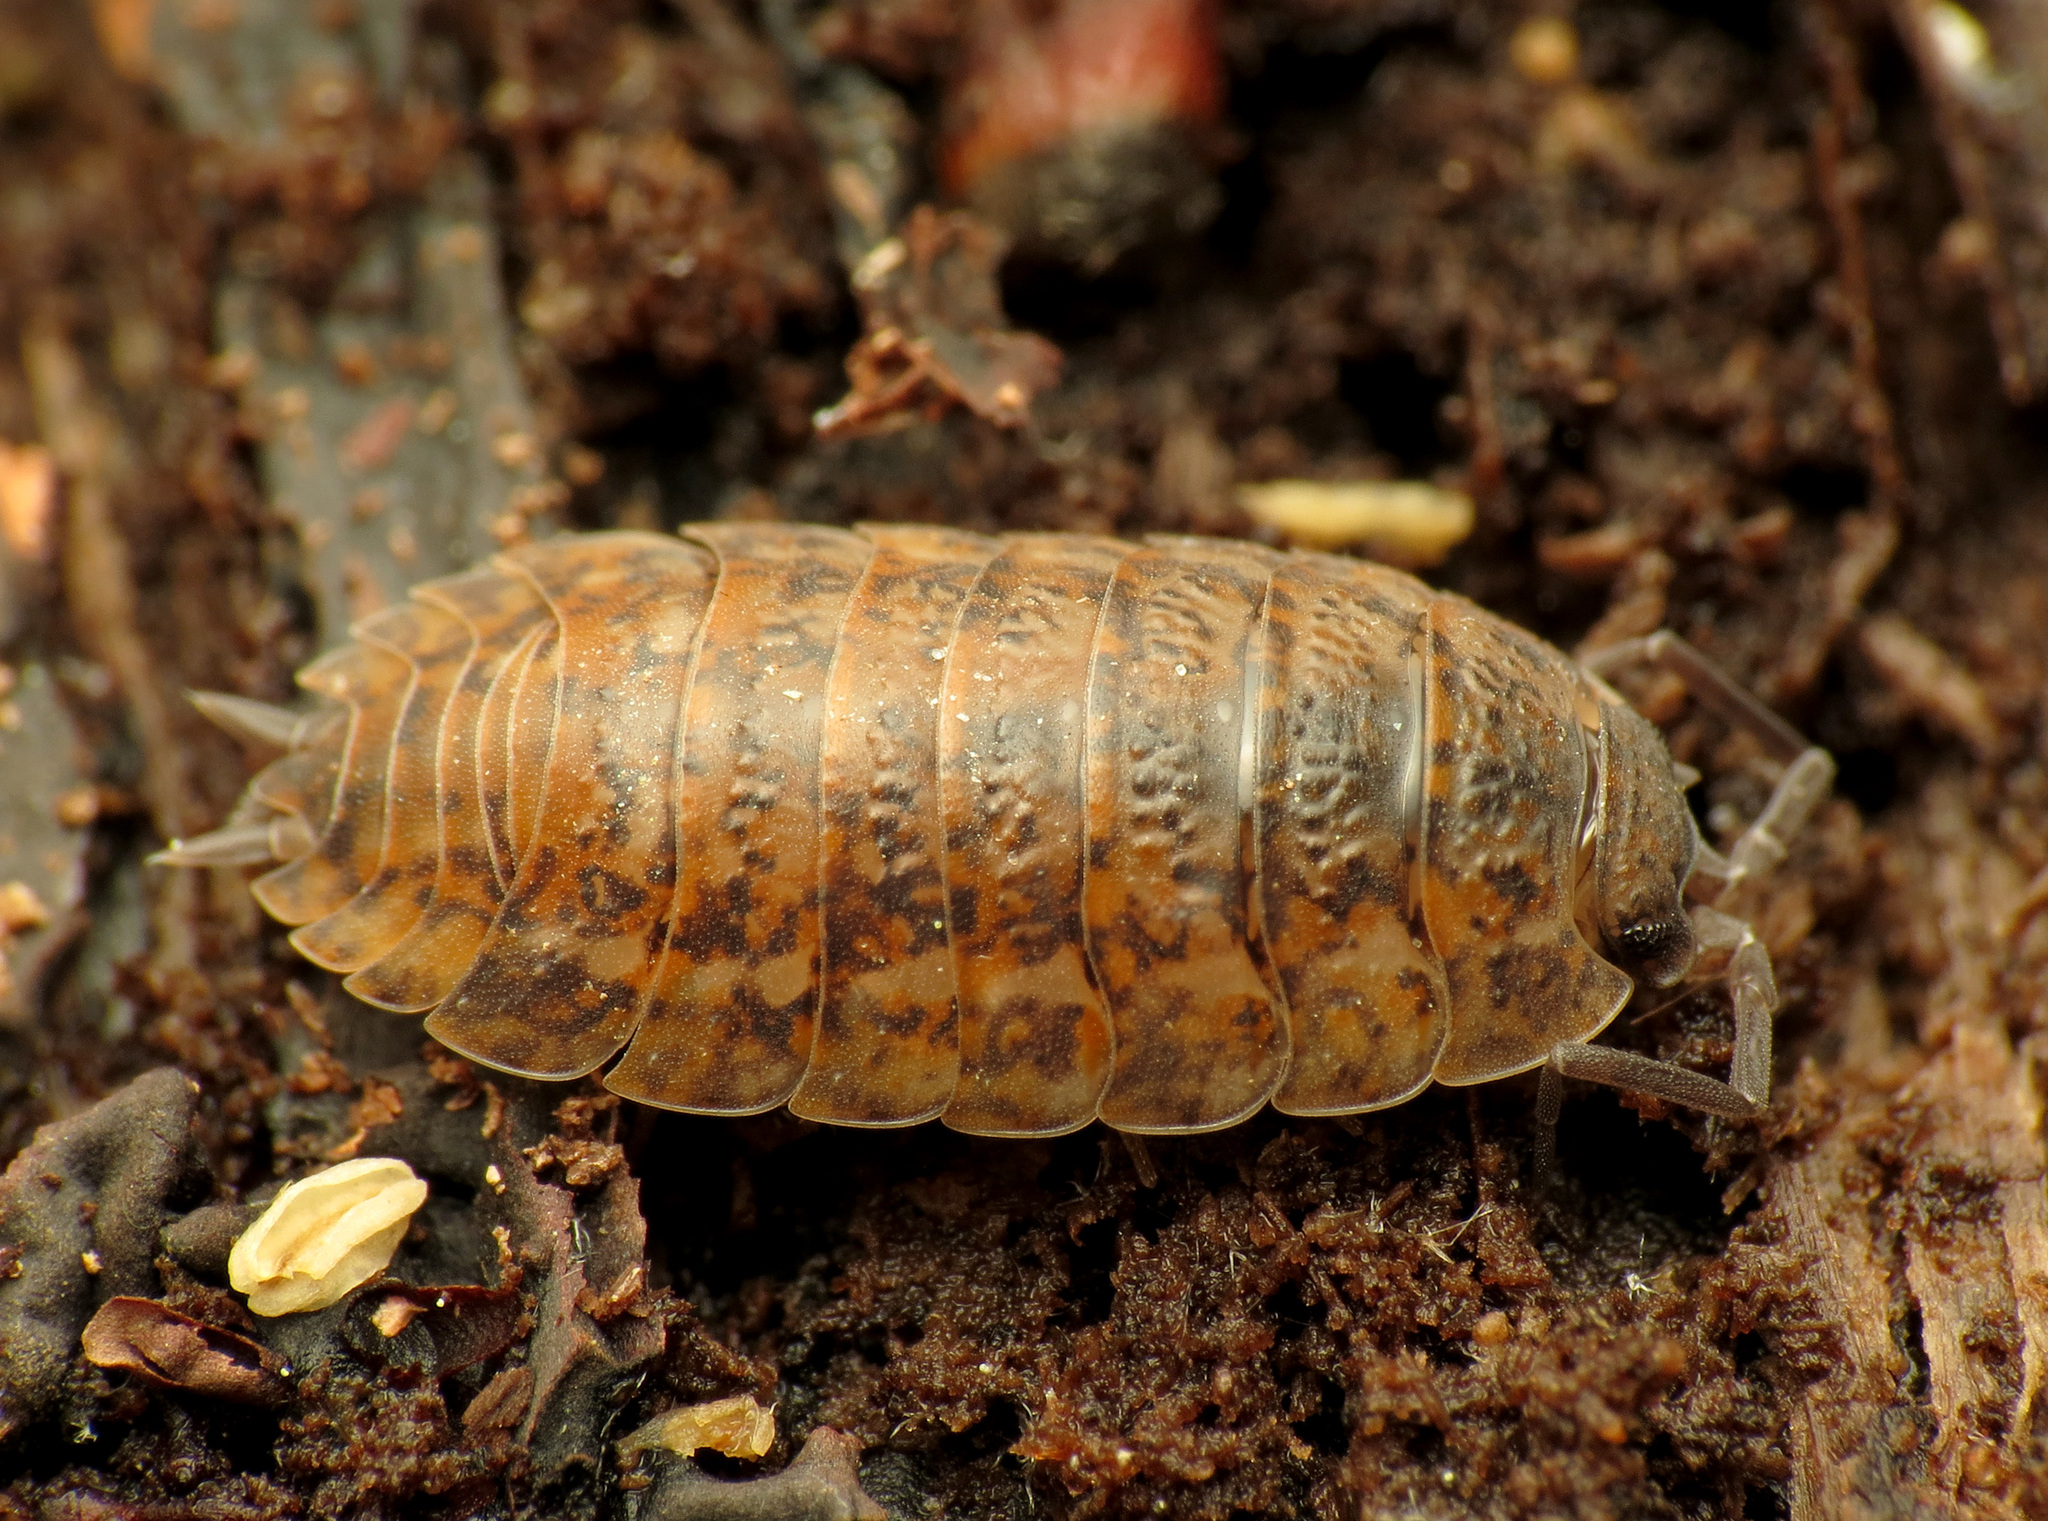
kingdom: Animalia
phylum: Arthropoda
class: Malacostraca
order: Isopoda
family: Trachelipodidae
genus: Trachelipus
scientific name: Trachelipus rathkii
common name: Isopod
